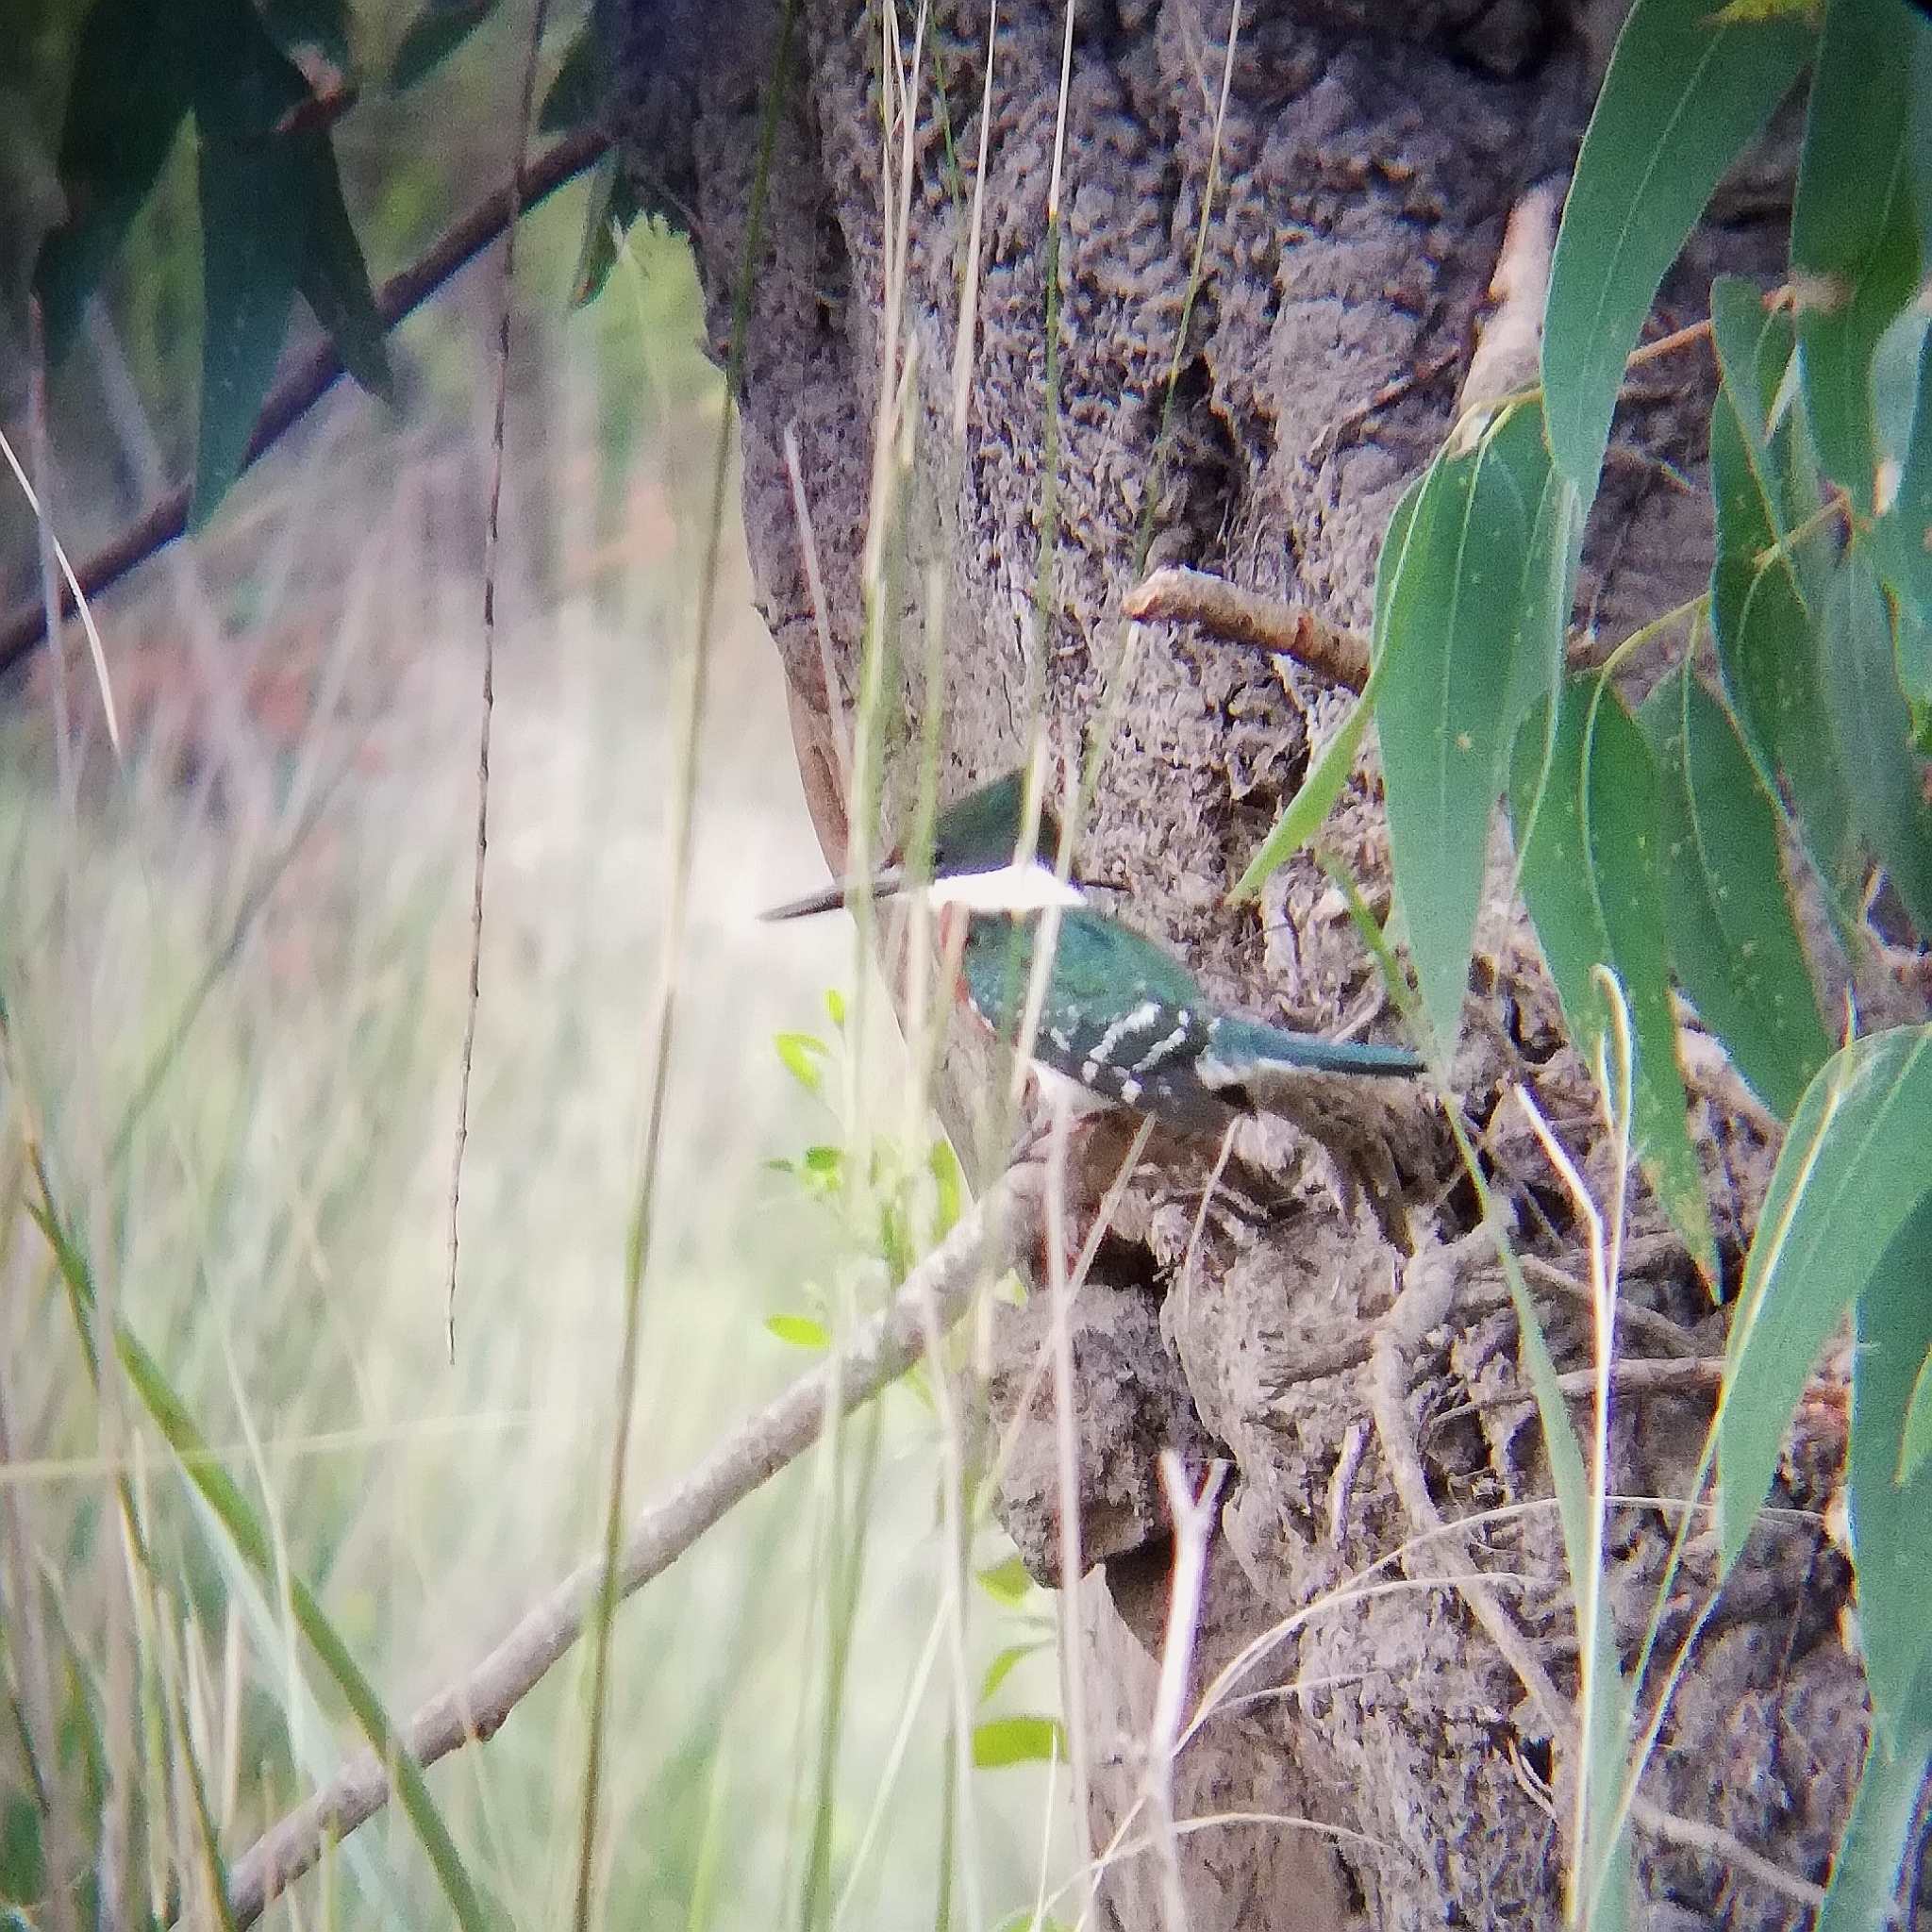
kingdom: Animalia
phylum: Chordata
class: Aves
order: Coraciiformes
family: Alcedinidae
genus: Chloroceryle
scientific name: Chloroceryle americana
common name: Green kingfisher
